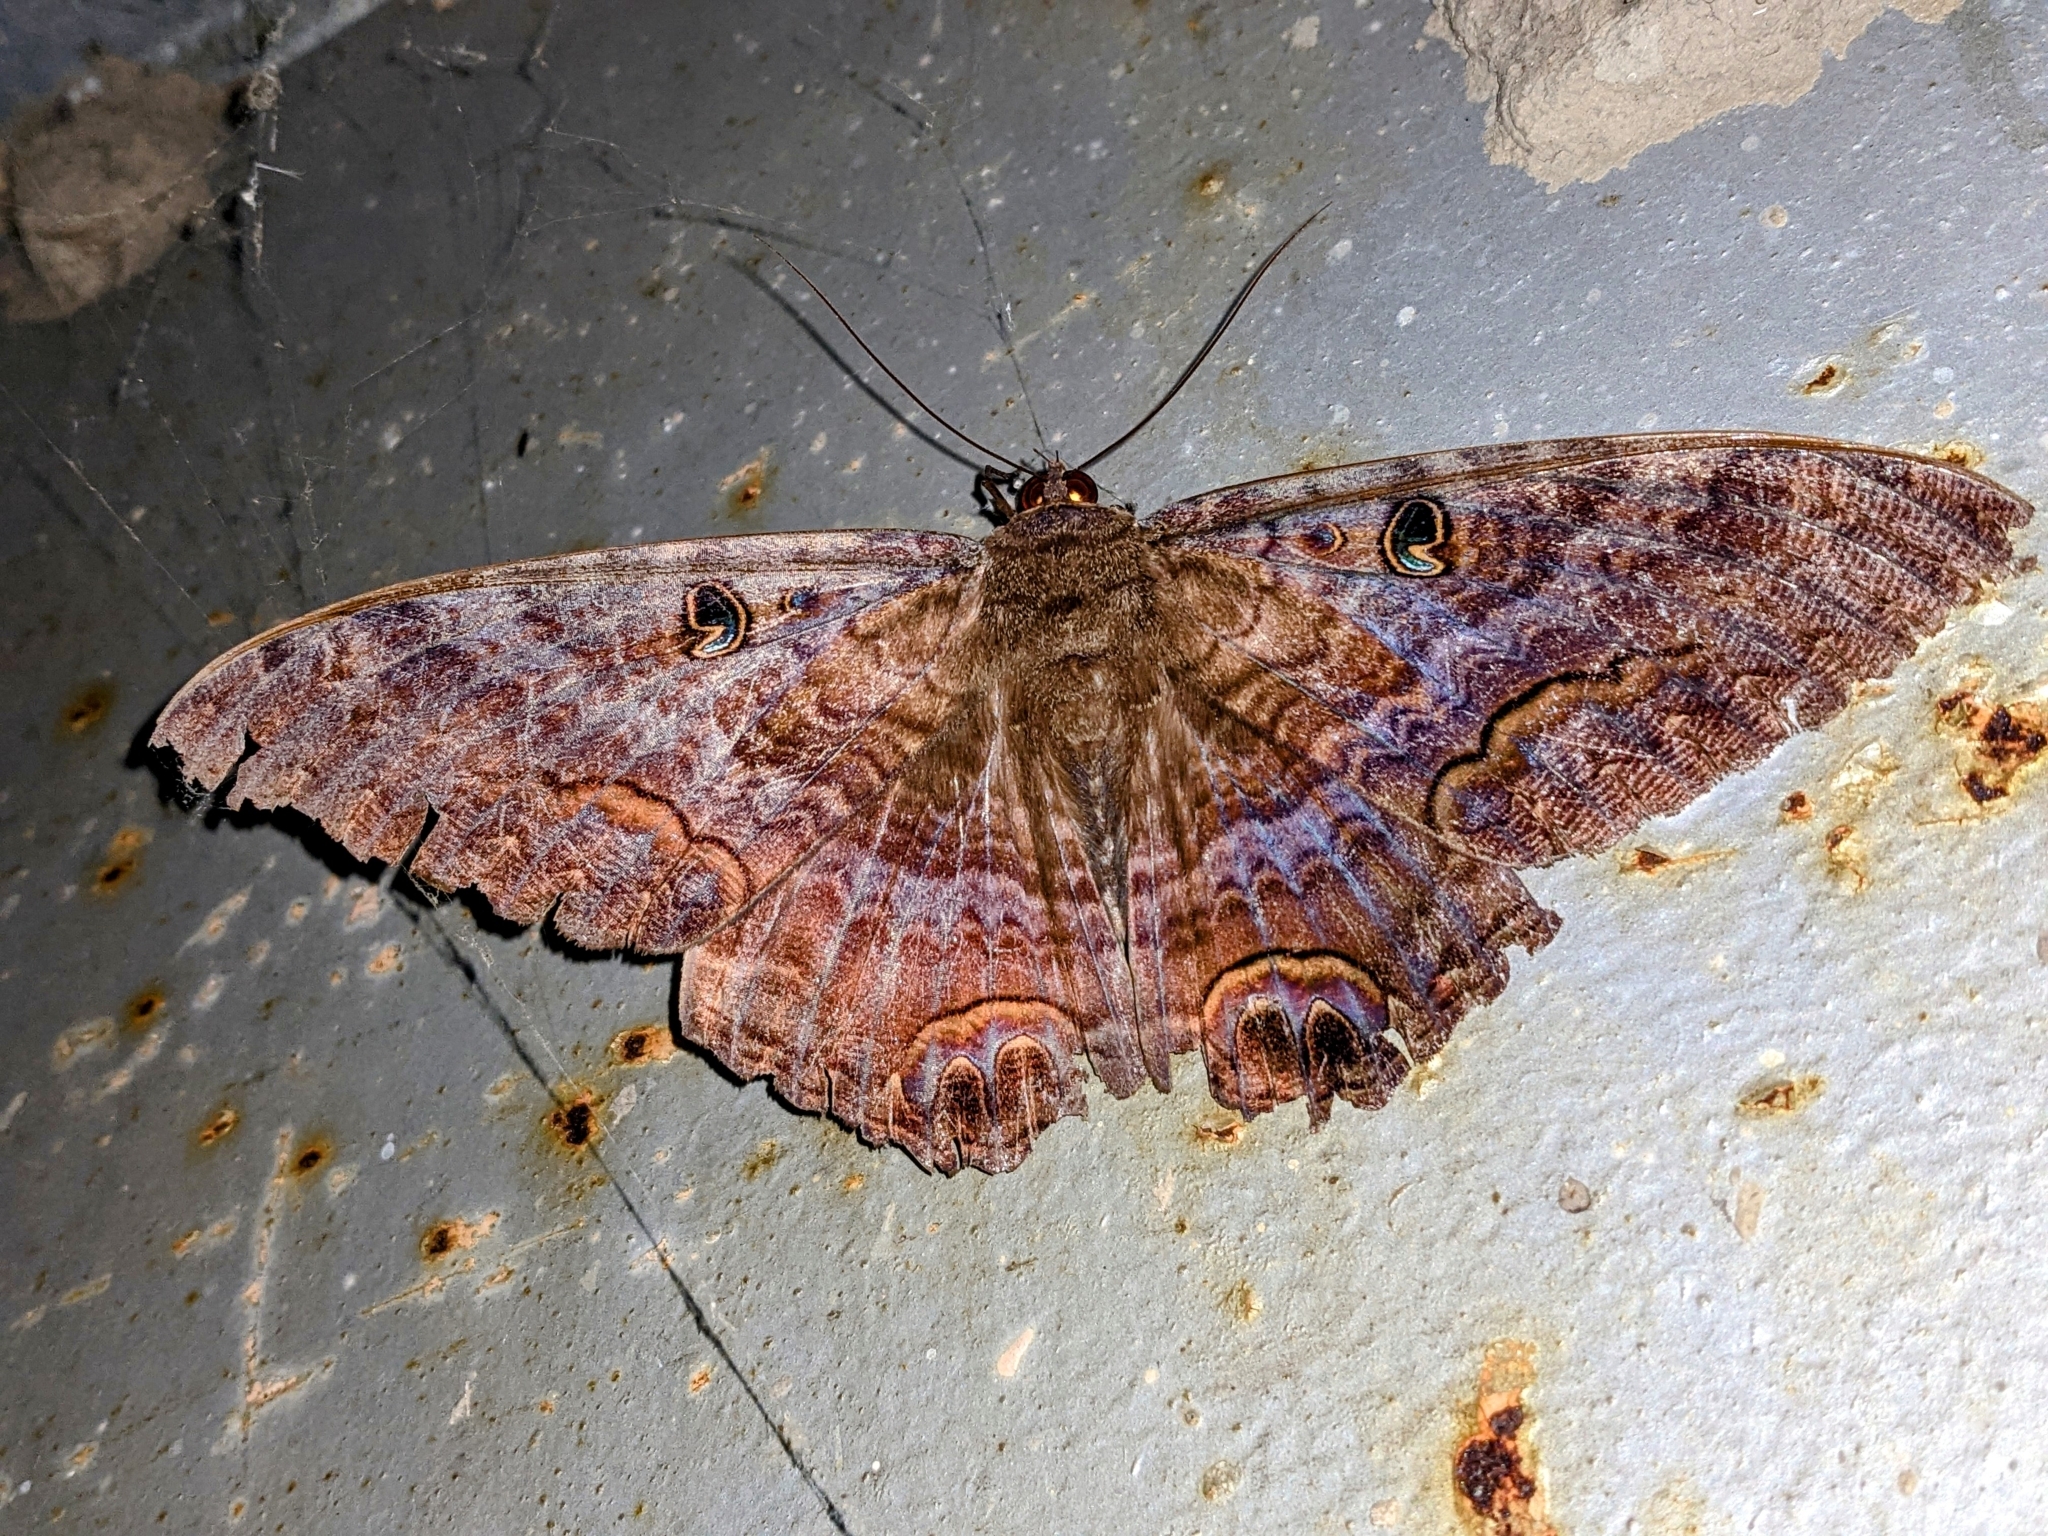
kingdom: Animalia
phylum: Arthropoda
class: Insecta
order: Lepidoptera
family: Erebidae
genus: Ascalapha
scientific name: Ascalapha odorata
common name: Black witch
